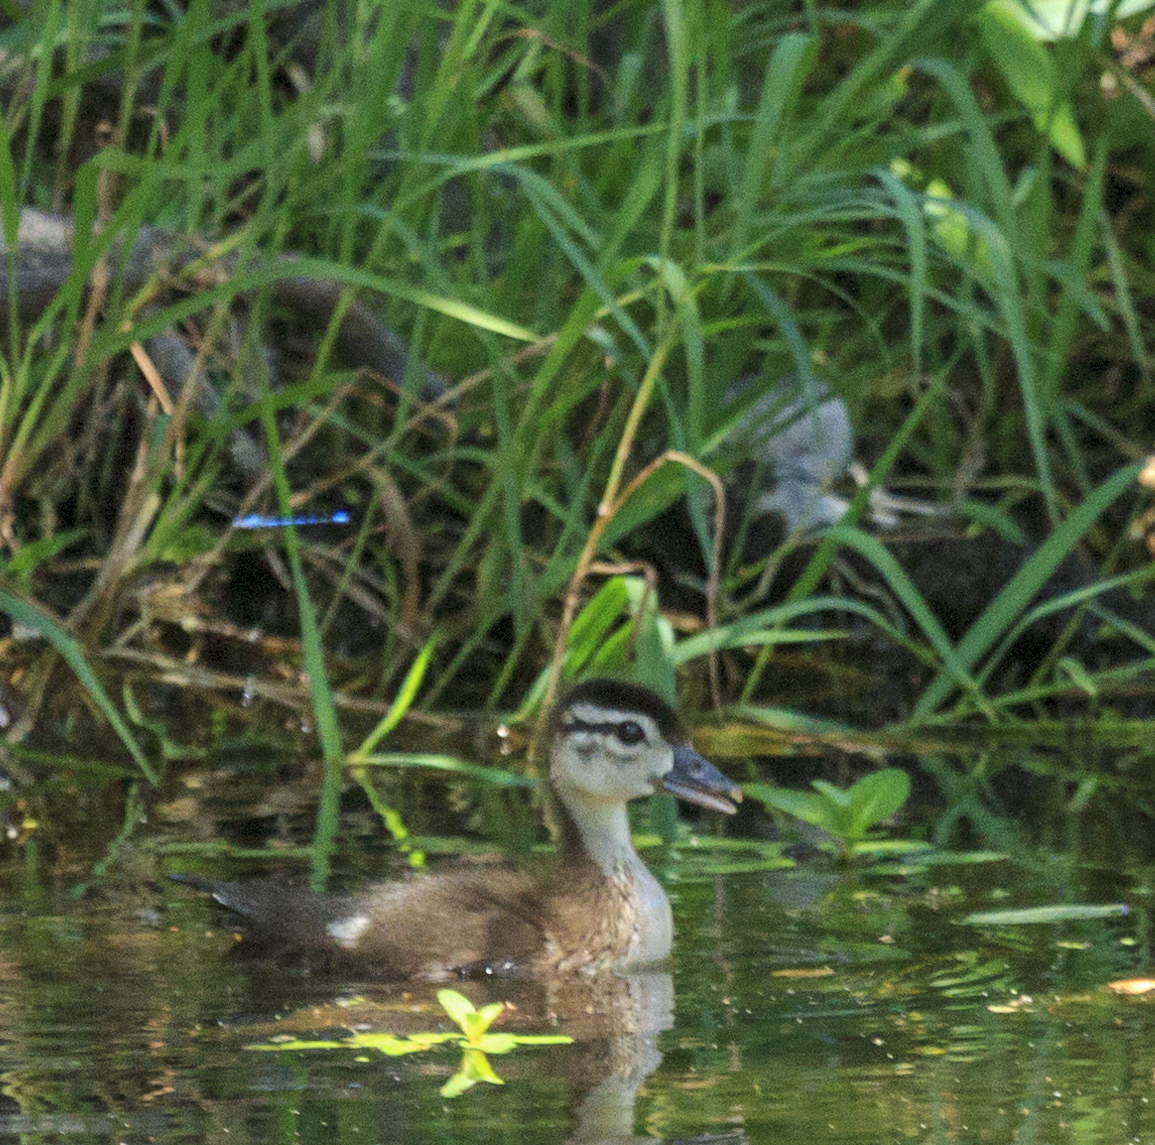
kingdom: Animalia
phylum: Chordata
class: Aves
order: Anseriformes
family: Anatidae
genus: Aix
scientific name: Aix sponsa
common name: Wood duck
